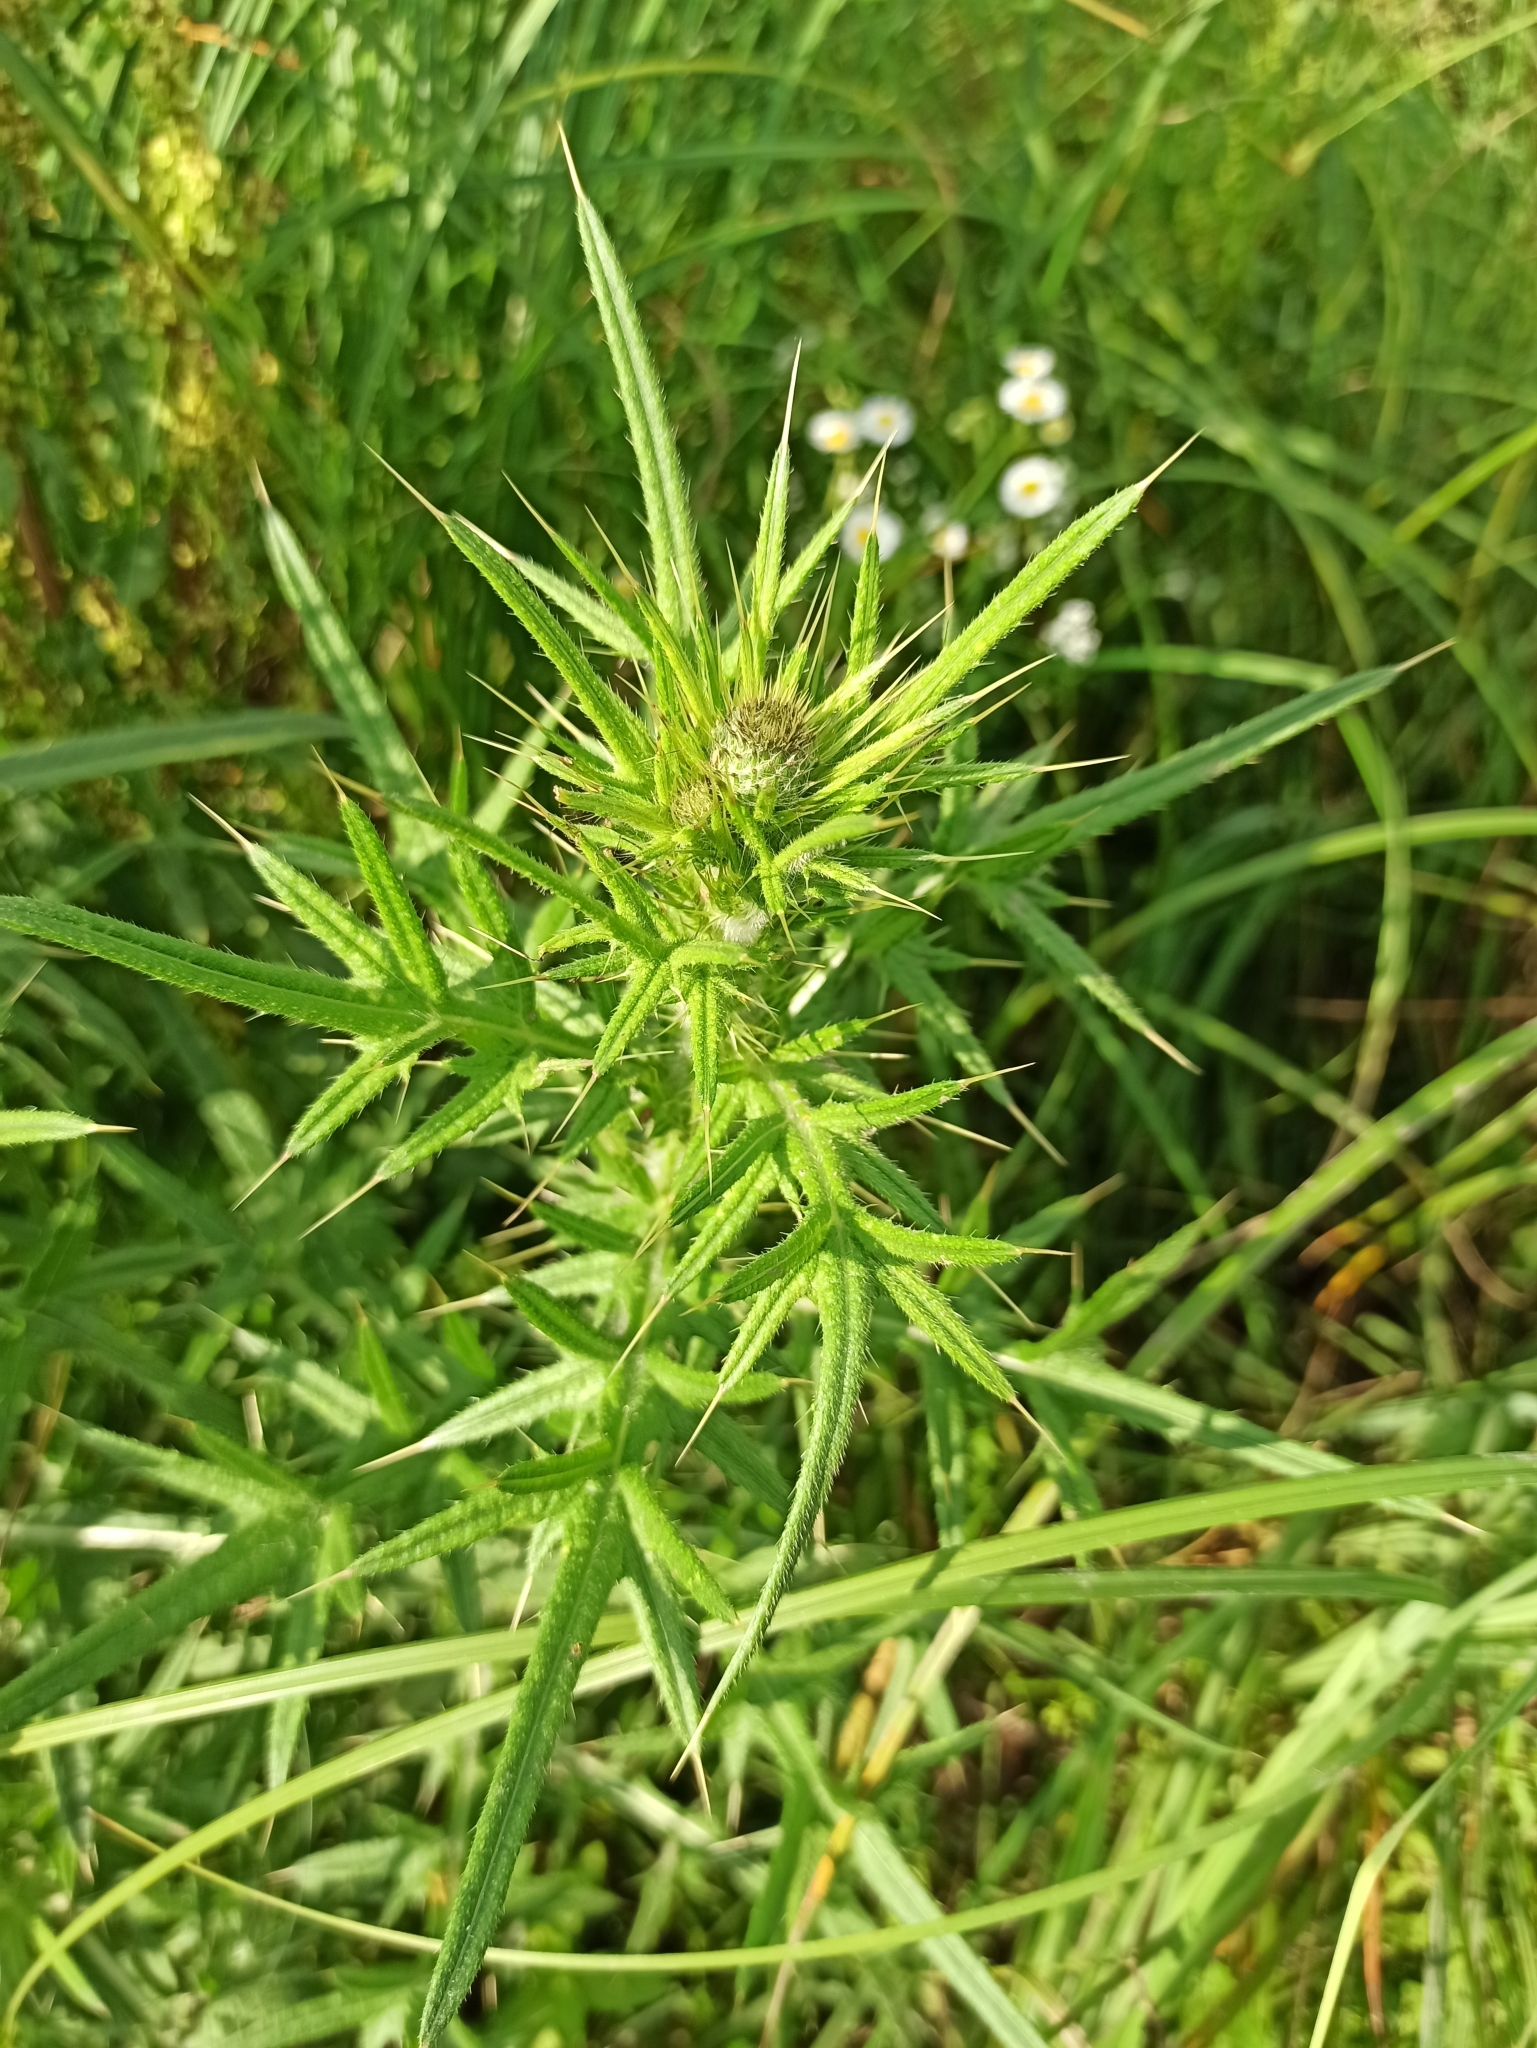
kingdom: Plantae
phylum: Tracheophyta
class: Magnoliopsida
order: Asterales
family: Asteraceae
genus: Cirsium
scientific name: Cirsium vulgare
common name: Bull thistle
